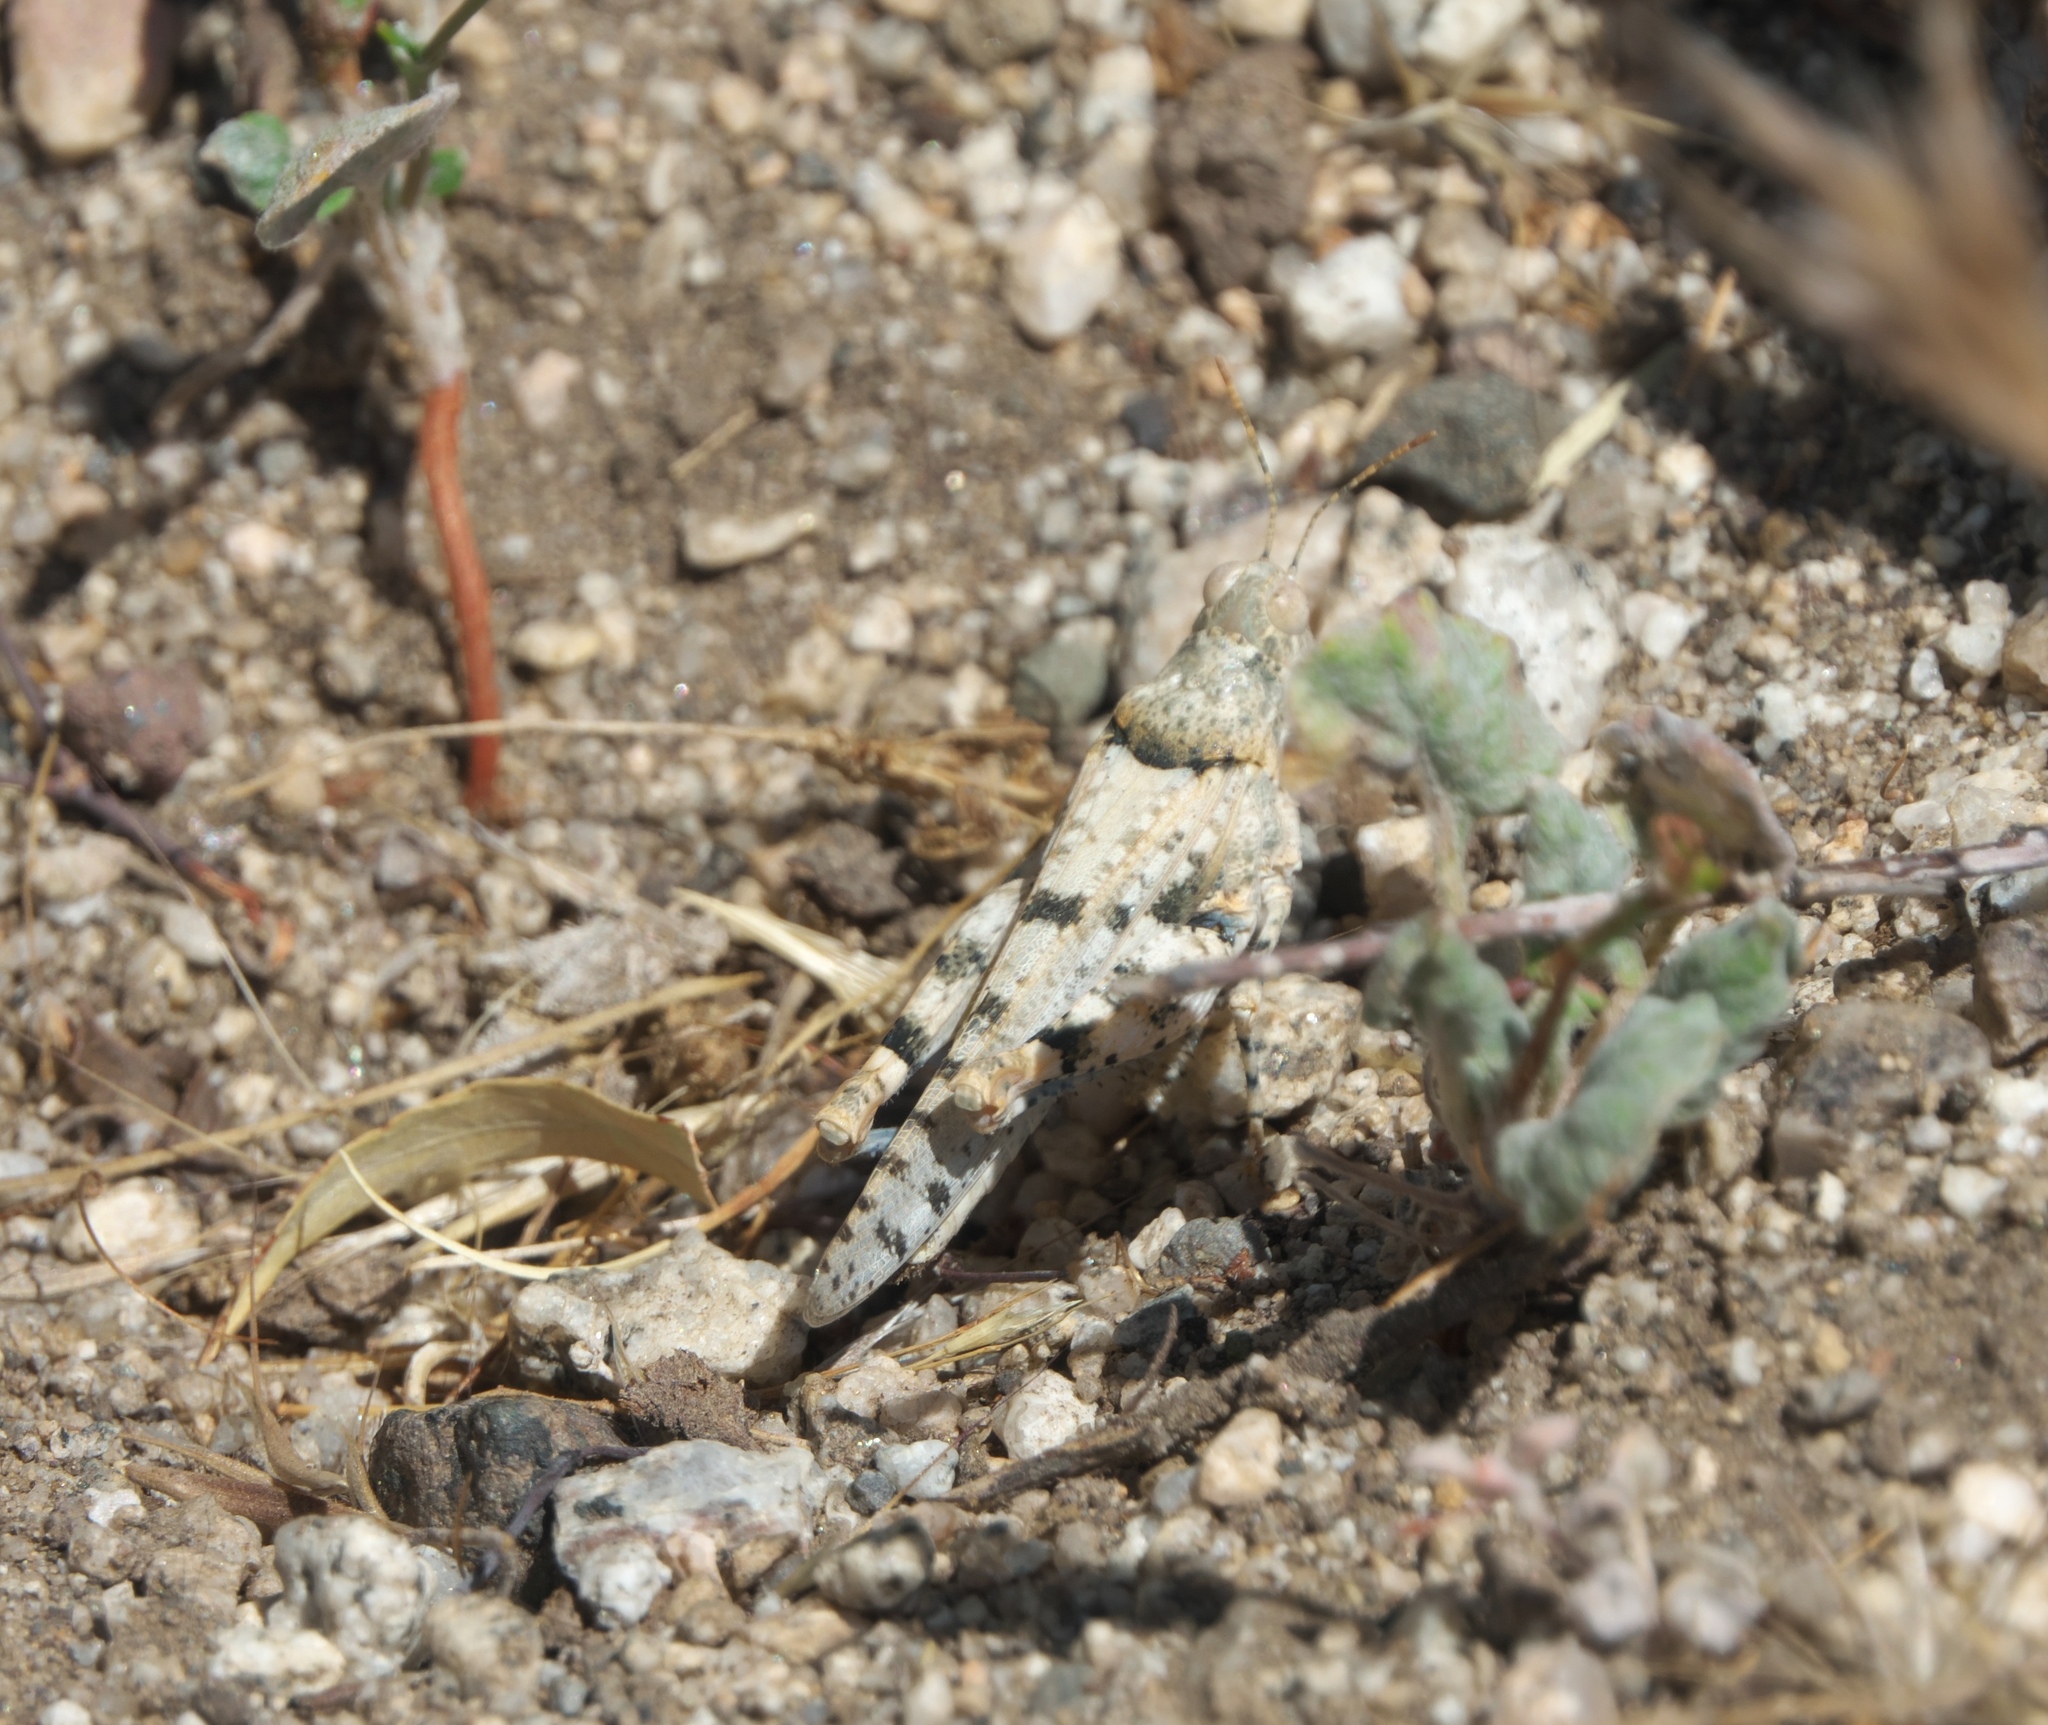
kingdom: Animalia
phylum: Arthropoda
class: Insecta
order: Orthoptera
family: Acrididae
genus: Cibolacris
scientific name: Cibolacris parviceps
